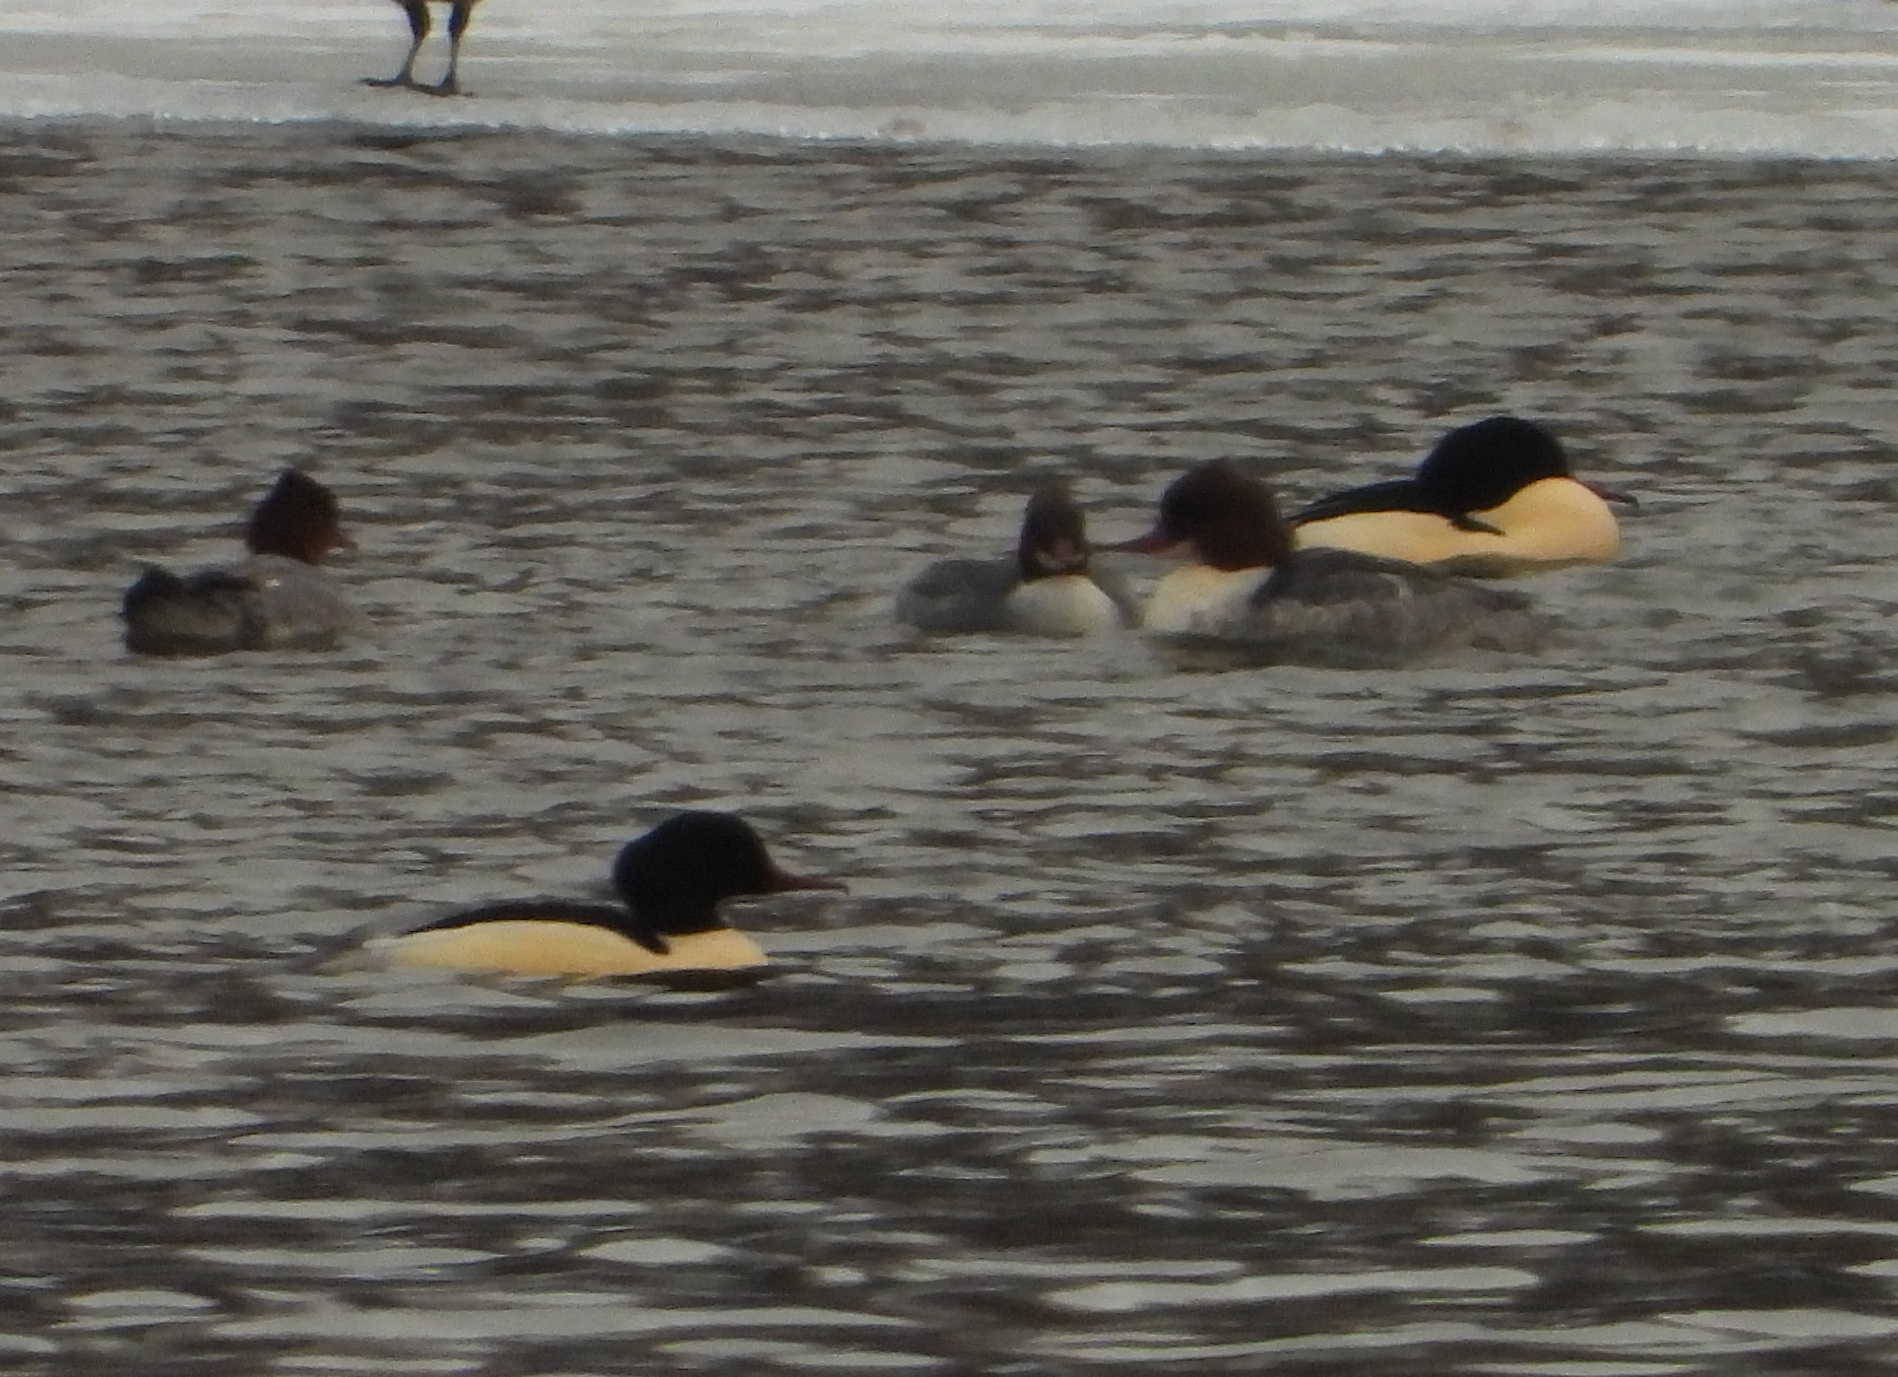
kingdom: Animalia
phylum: Chordata
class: Aves
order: Anseriformes
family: Anatidae
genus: Mergus
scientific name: Mergus merganser
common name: Common merganser
